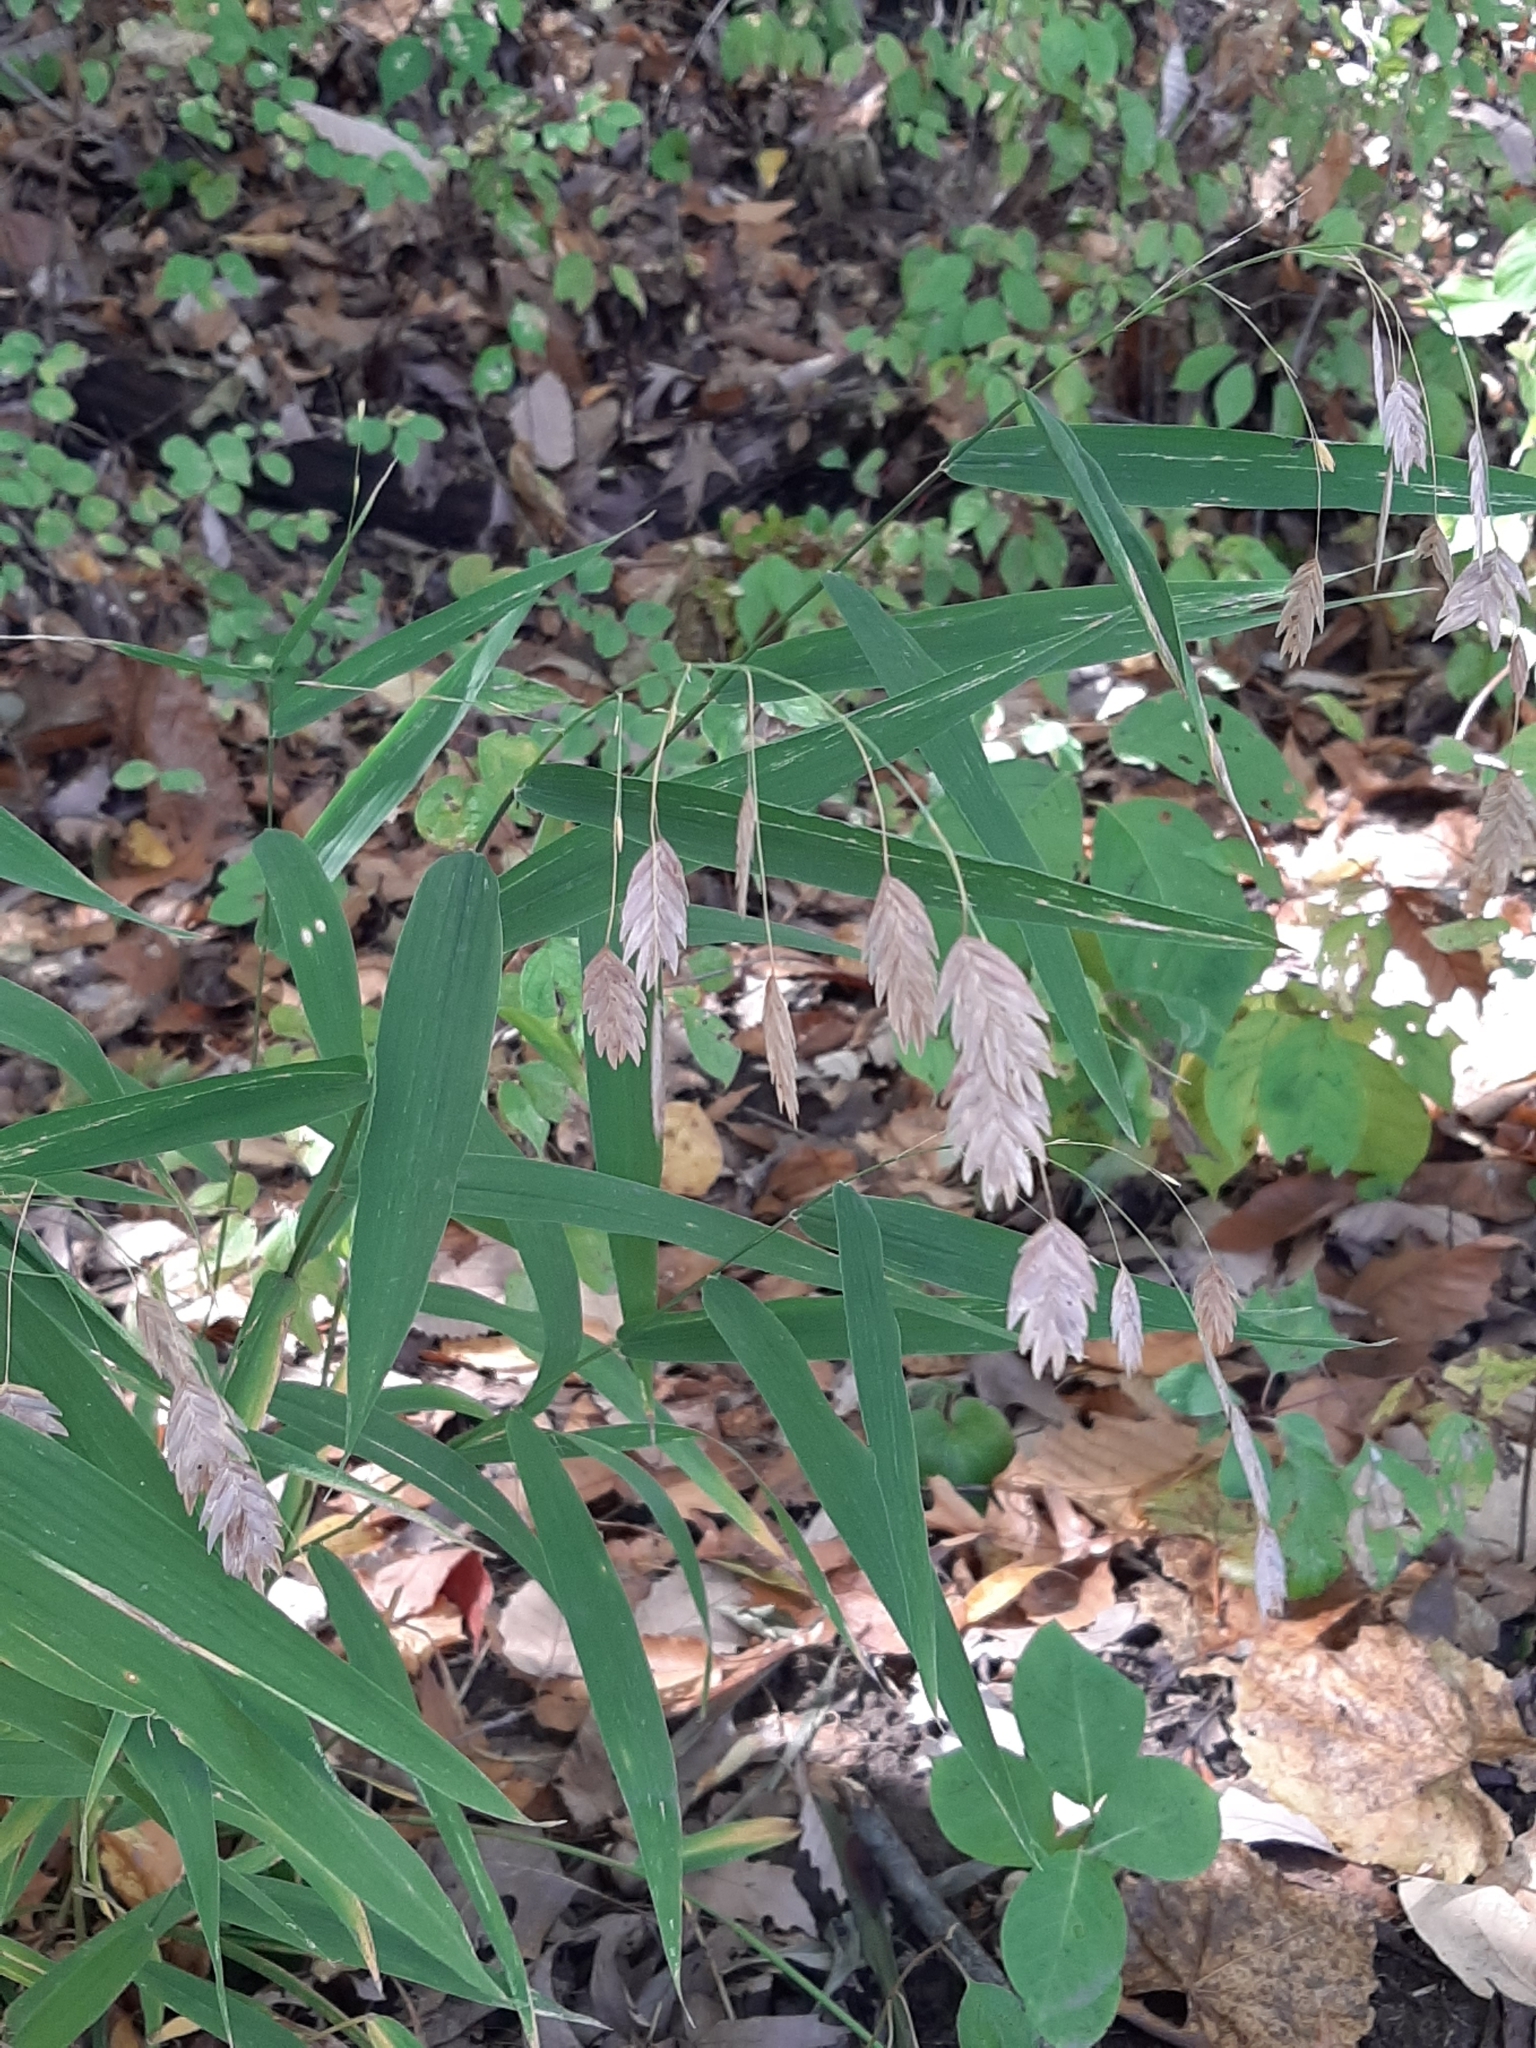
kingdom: Plantae
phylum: Tracheophyta
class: Liliopsida
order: Poales
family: Poaceae
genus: Chasmanthium
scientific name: Chasmanthium latifolium
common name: Broad-leaved chasmanthium
